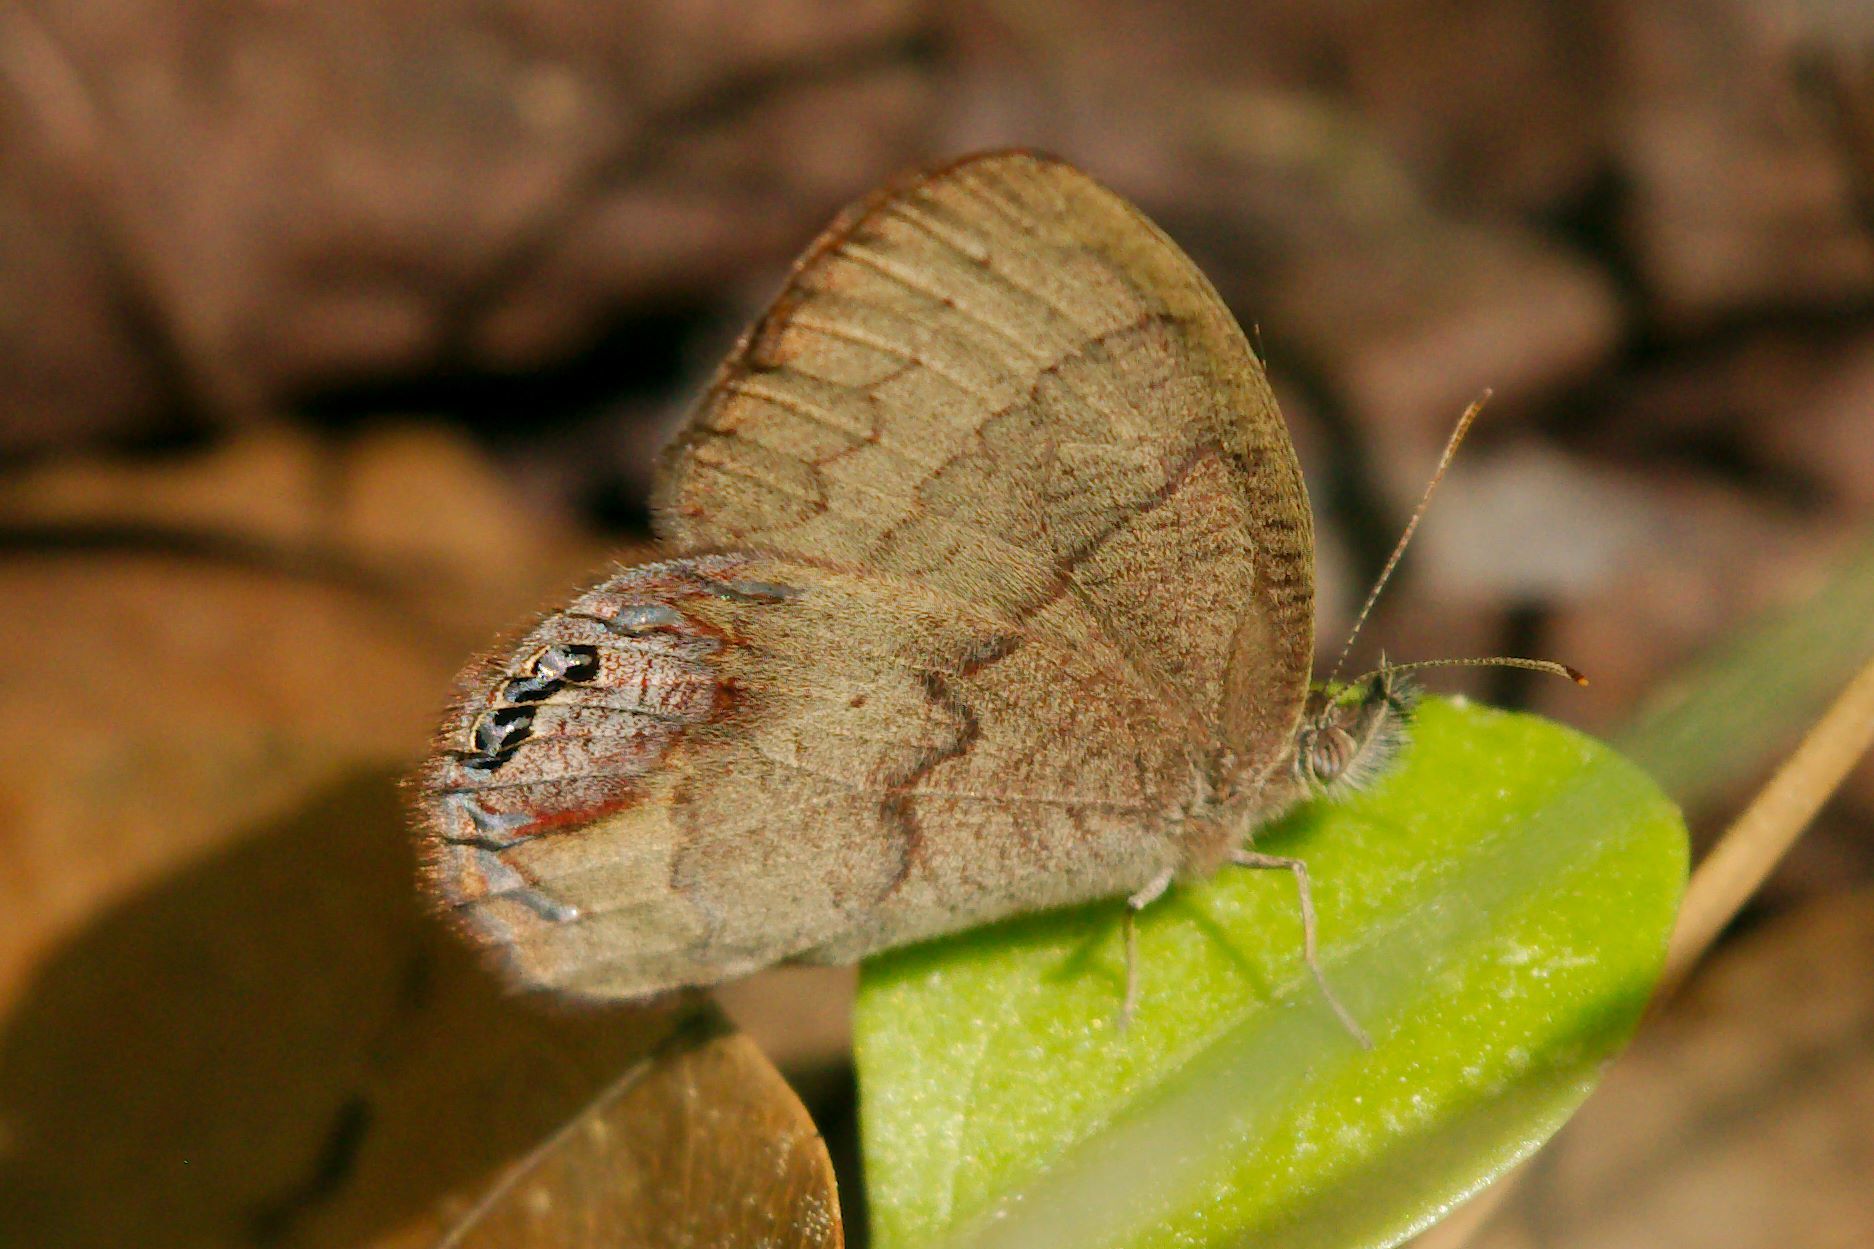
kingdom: Animalia
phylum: Arthropoda
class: Insecta
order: Lepidoptera
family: Nymphalidae
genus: Euptychia
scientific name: Euptychia cornelius
